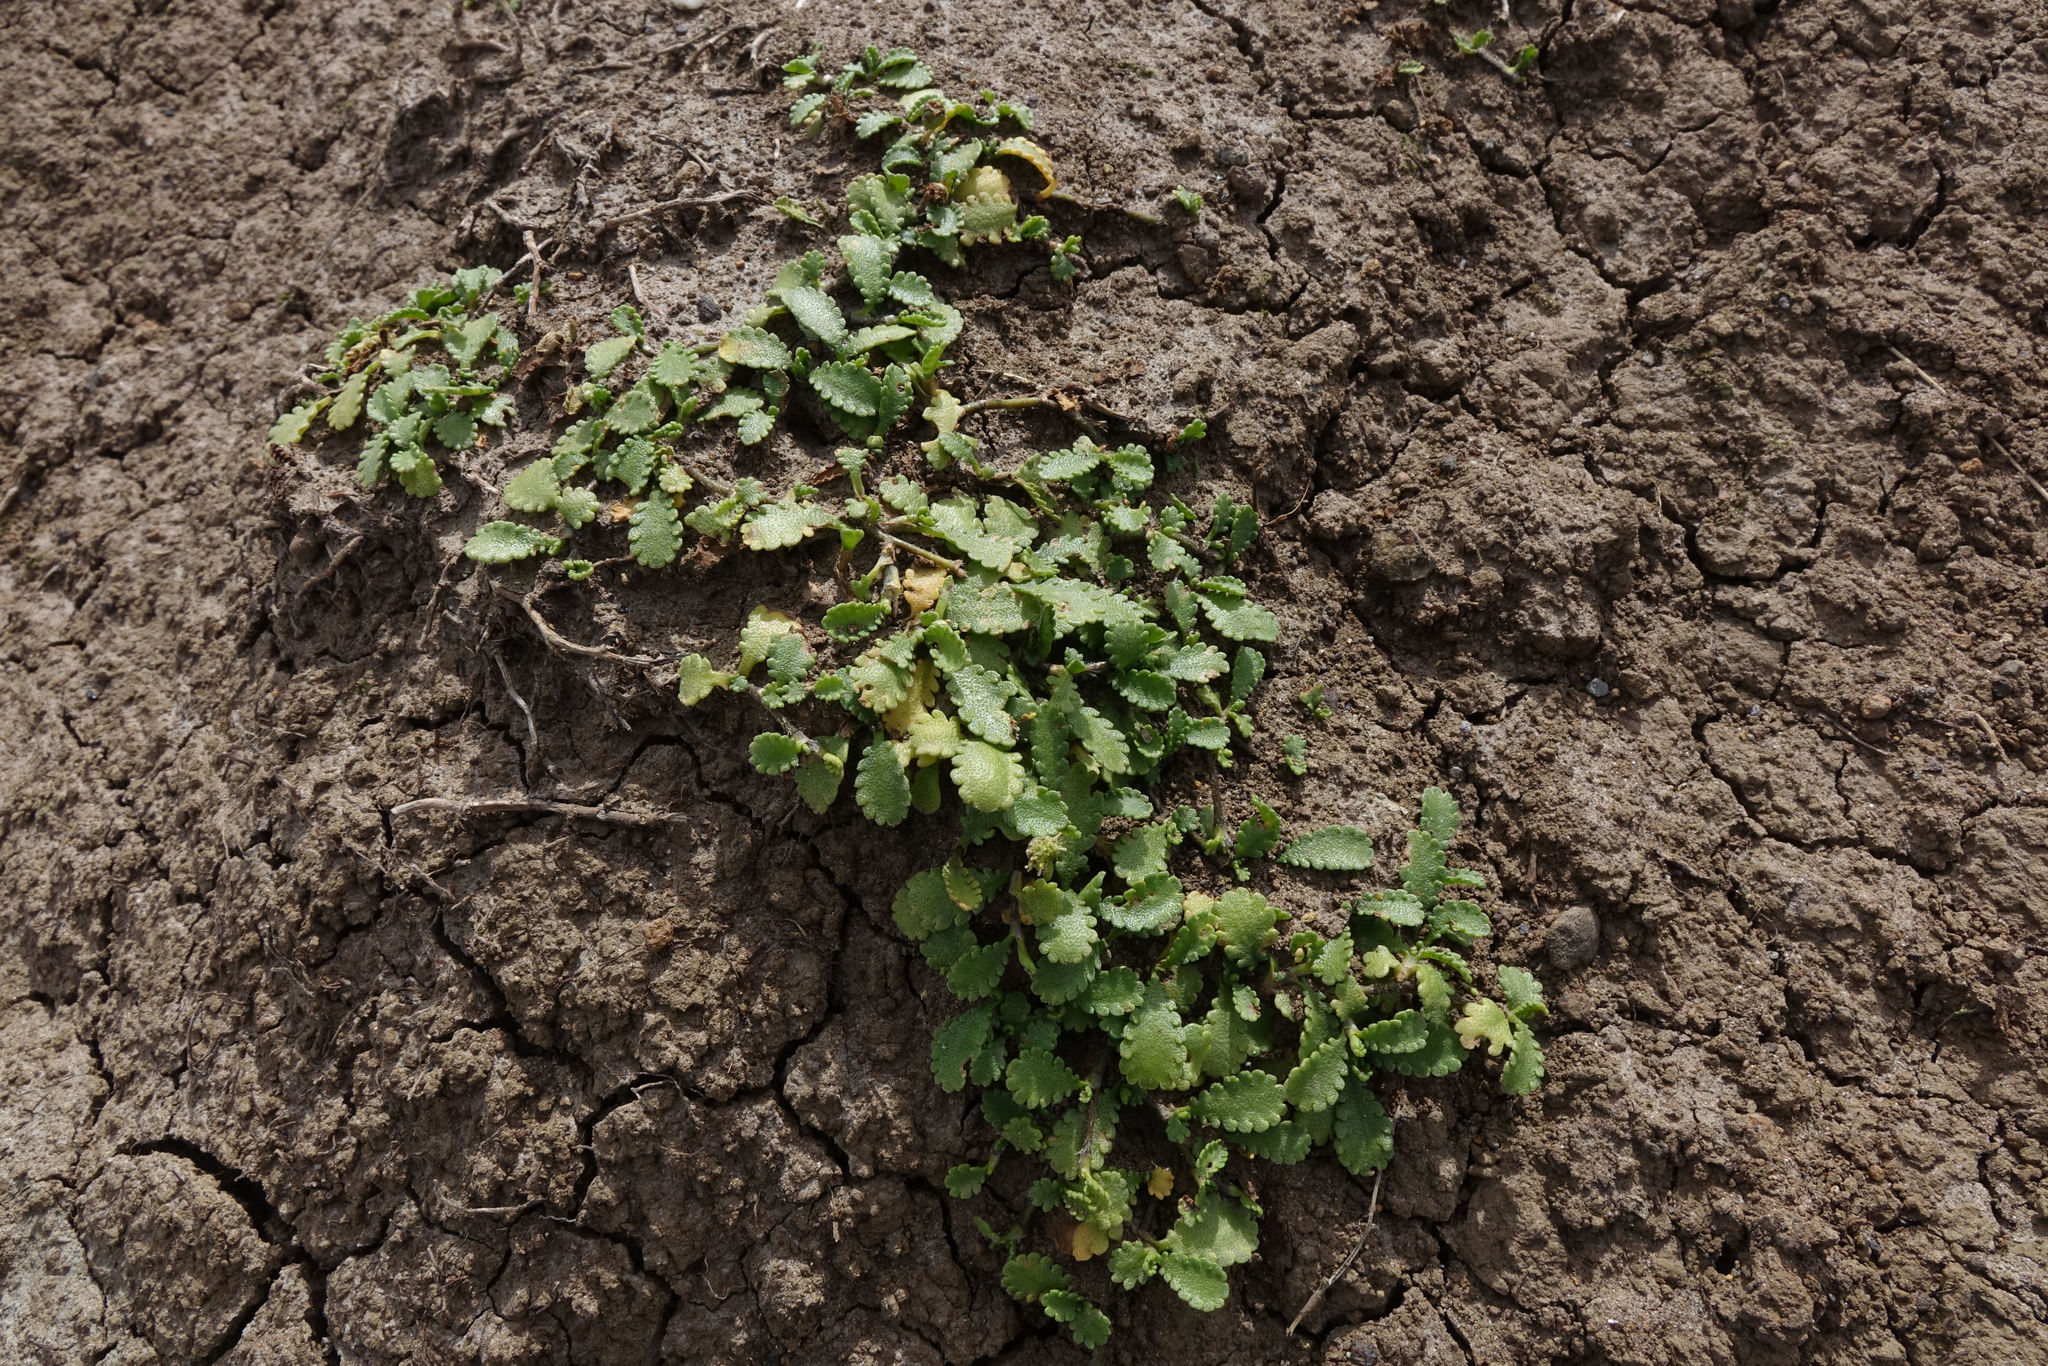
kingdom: Plantae
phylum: Tracheophyta
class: Magnoliopsida
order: Asterales
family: Asteraceae
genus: Leptinella
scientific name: Leptinella dioica
